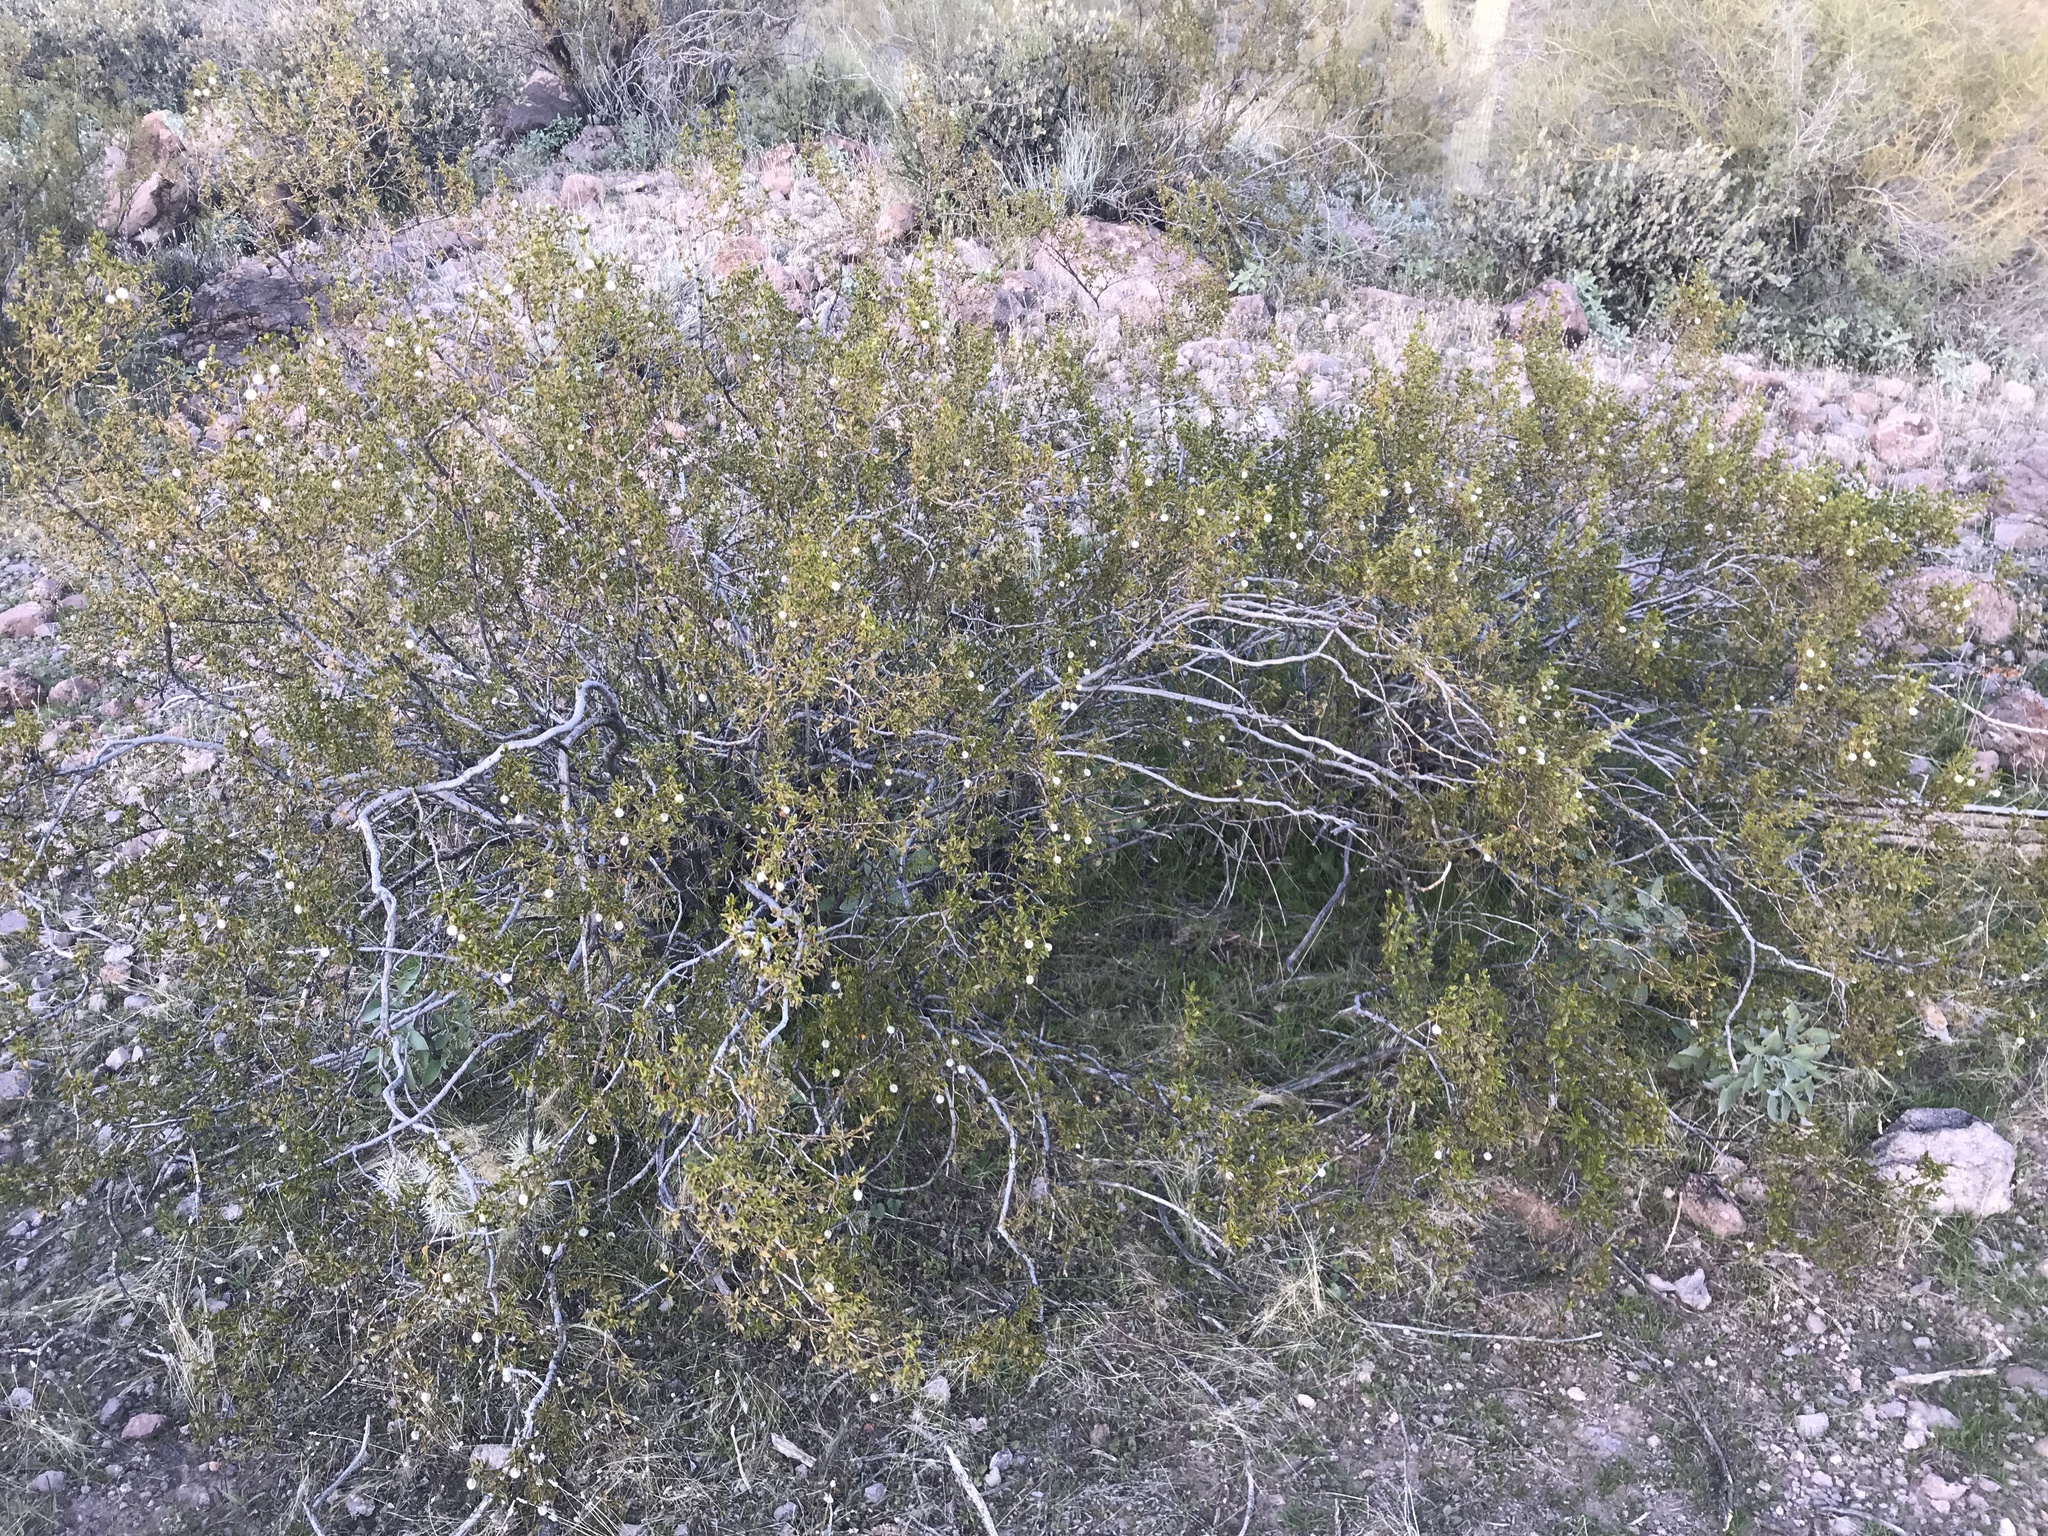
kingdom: Plantae
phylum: Tracheophyta
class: Magnoliopsida
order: Zygophyllales
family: Zygophyllaceae
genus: Larrea
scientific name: Larrea tridentata
